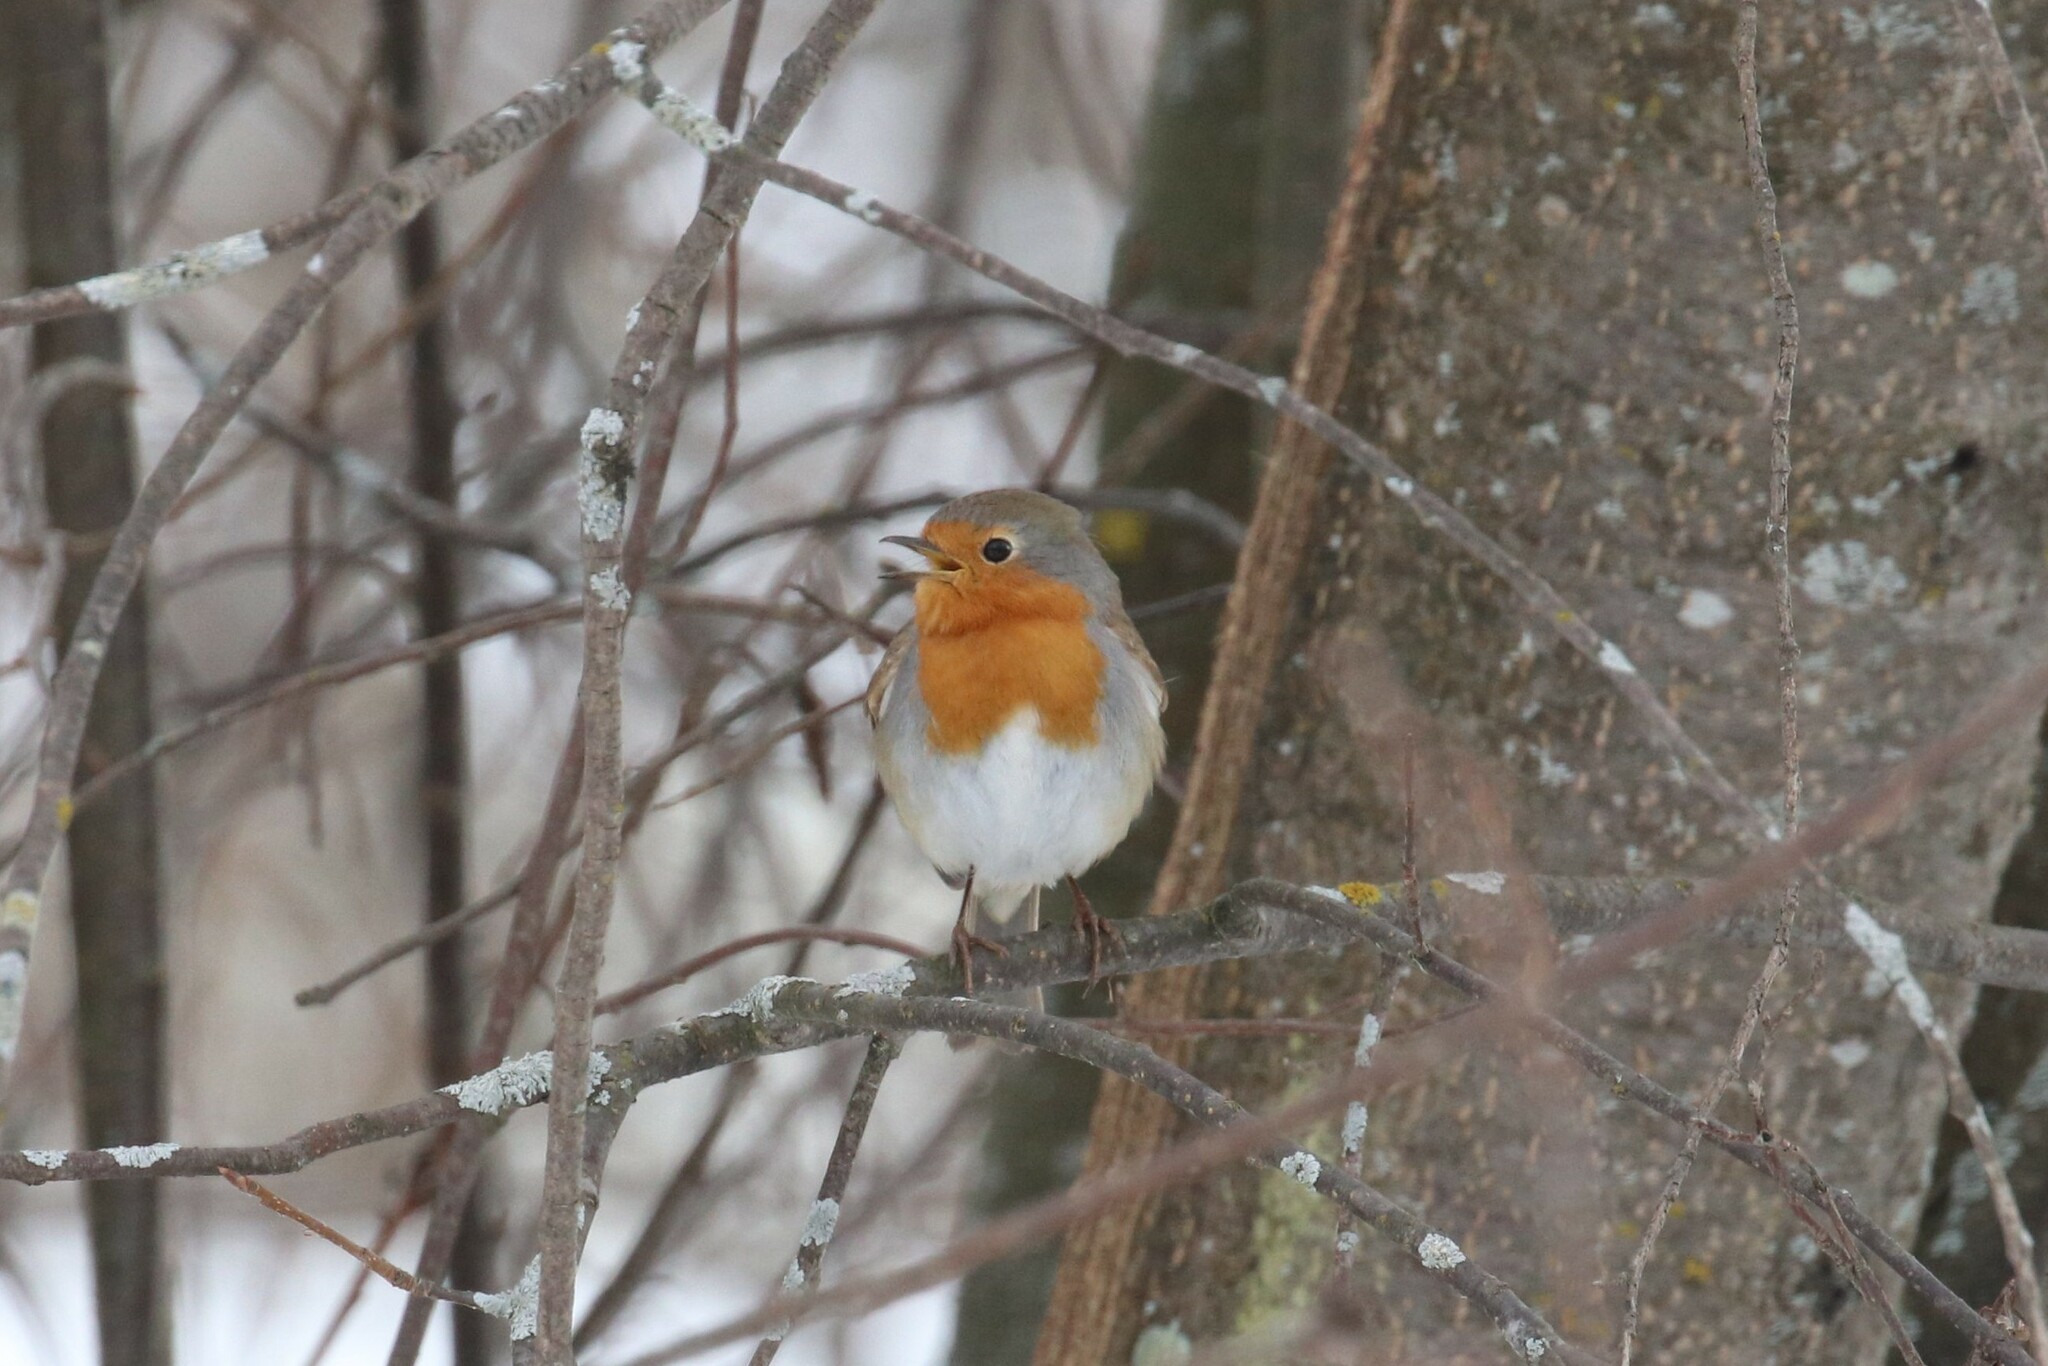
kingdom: Animalia
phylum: Chordata
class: Aves
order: Passeriformes
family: Muscicapidae
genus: Erithacus
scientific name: Erithacus rubecula
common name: European robin
